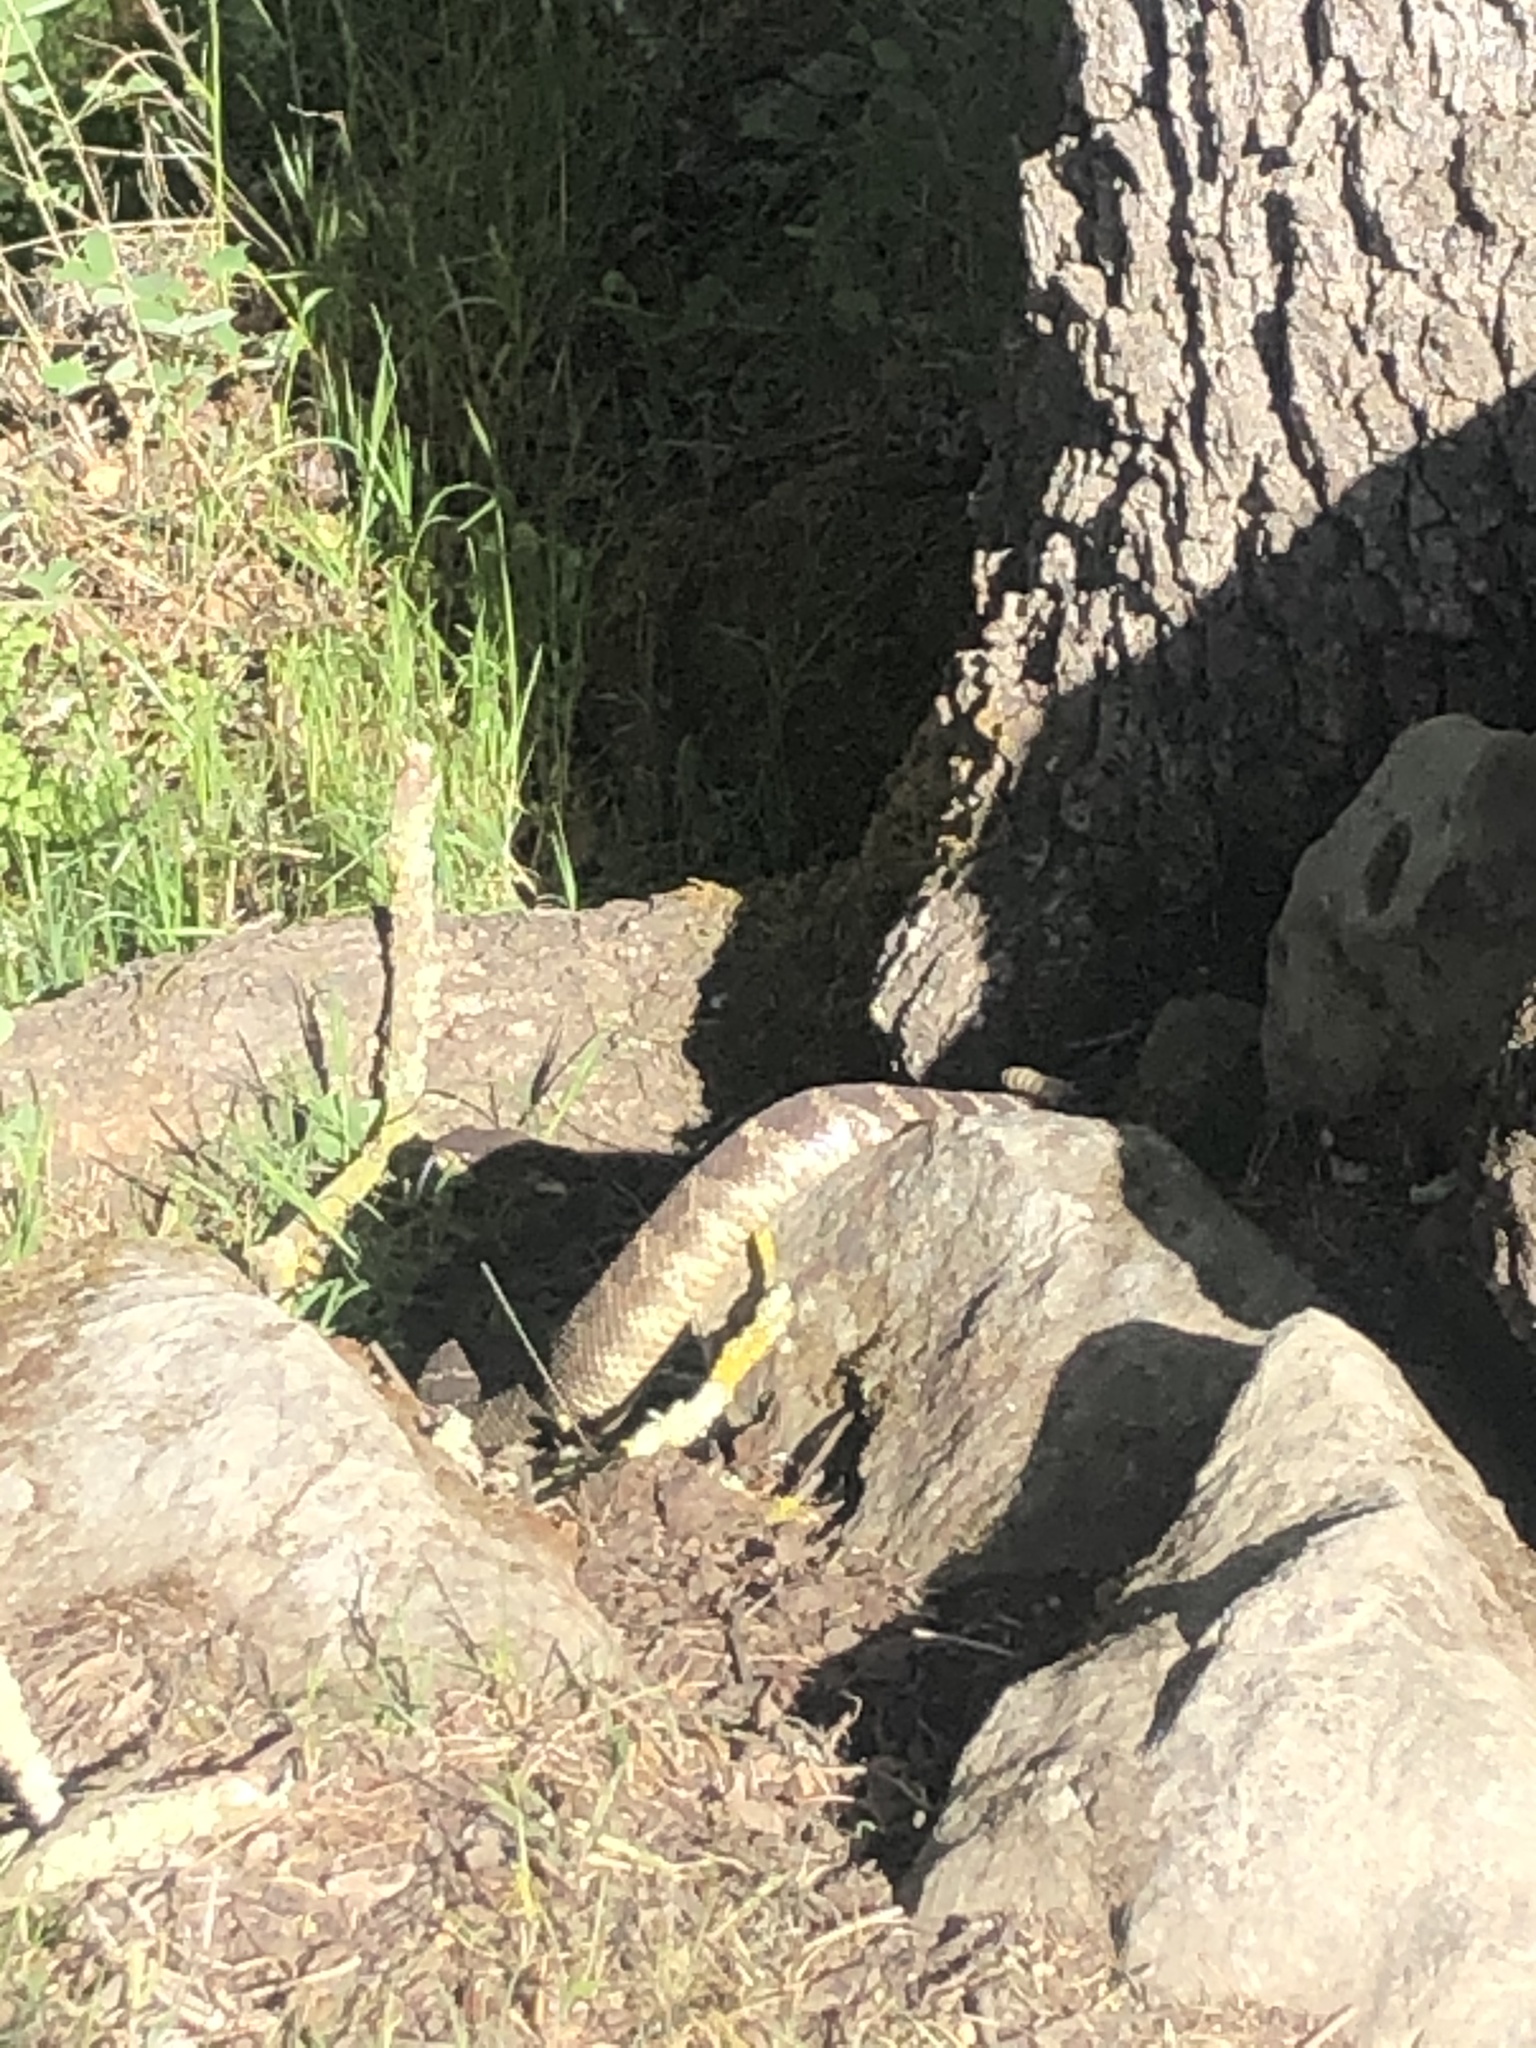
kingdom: Animalia
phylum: Chordata
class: Squamata
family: Viperidae
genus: Crotalus
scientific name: Crotalus oreganus
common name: Abyssus
